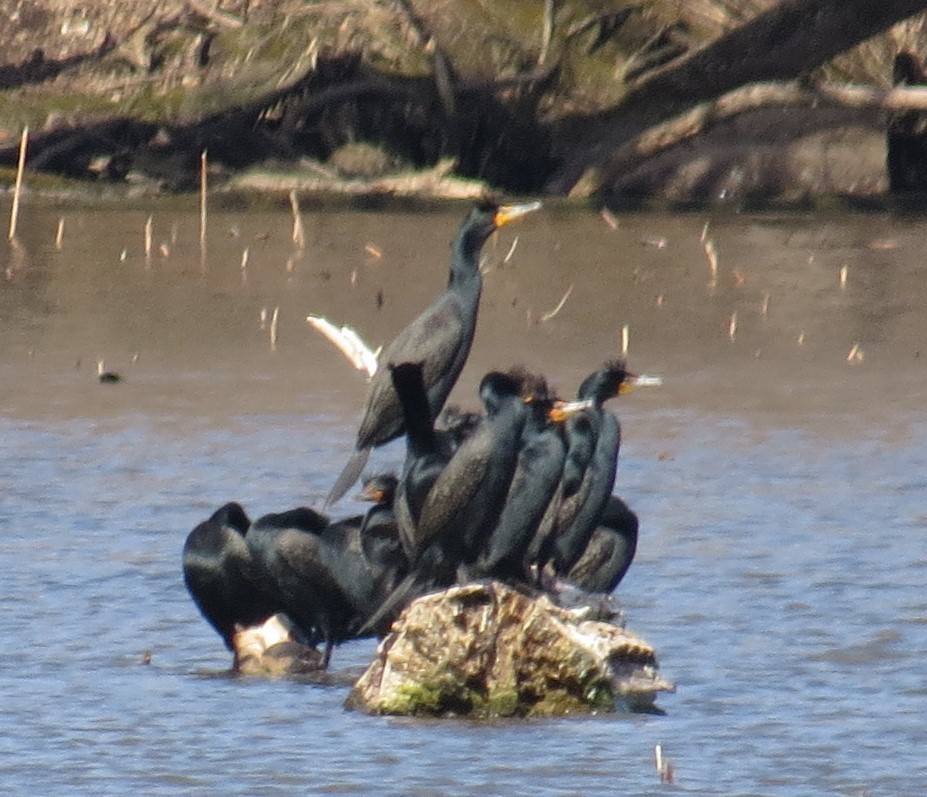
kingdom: Animalia
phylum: Chordata
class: Aves
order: Suliformes
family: Phalacrocoracidae
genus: Phalacrocorax
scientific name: Phalacrocorax auritus
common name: Double-crested cormorant
